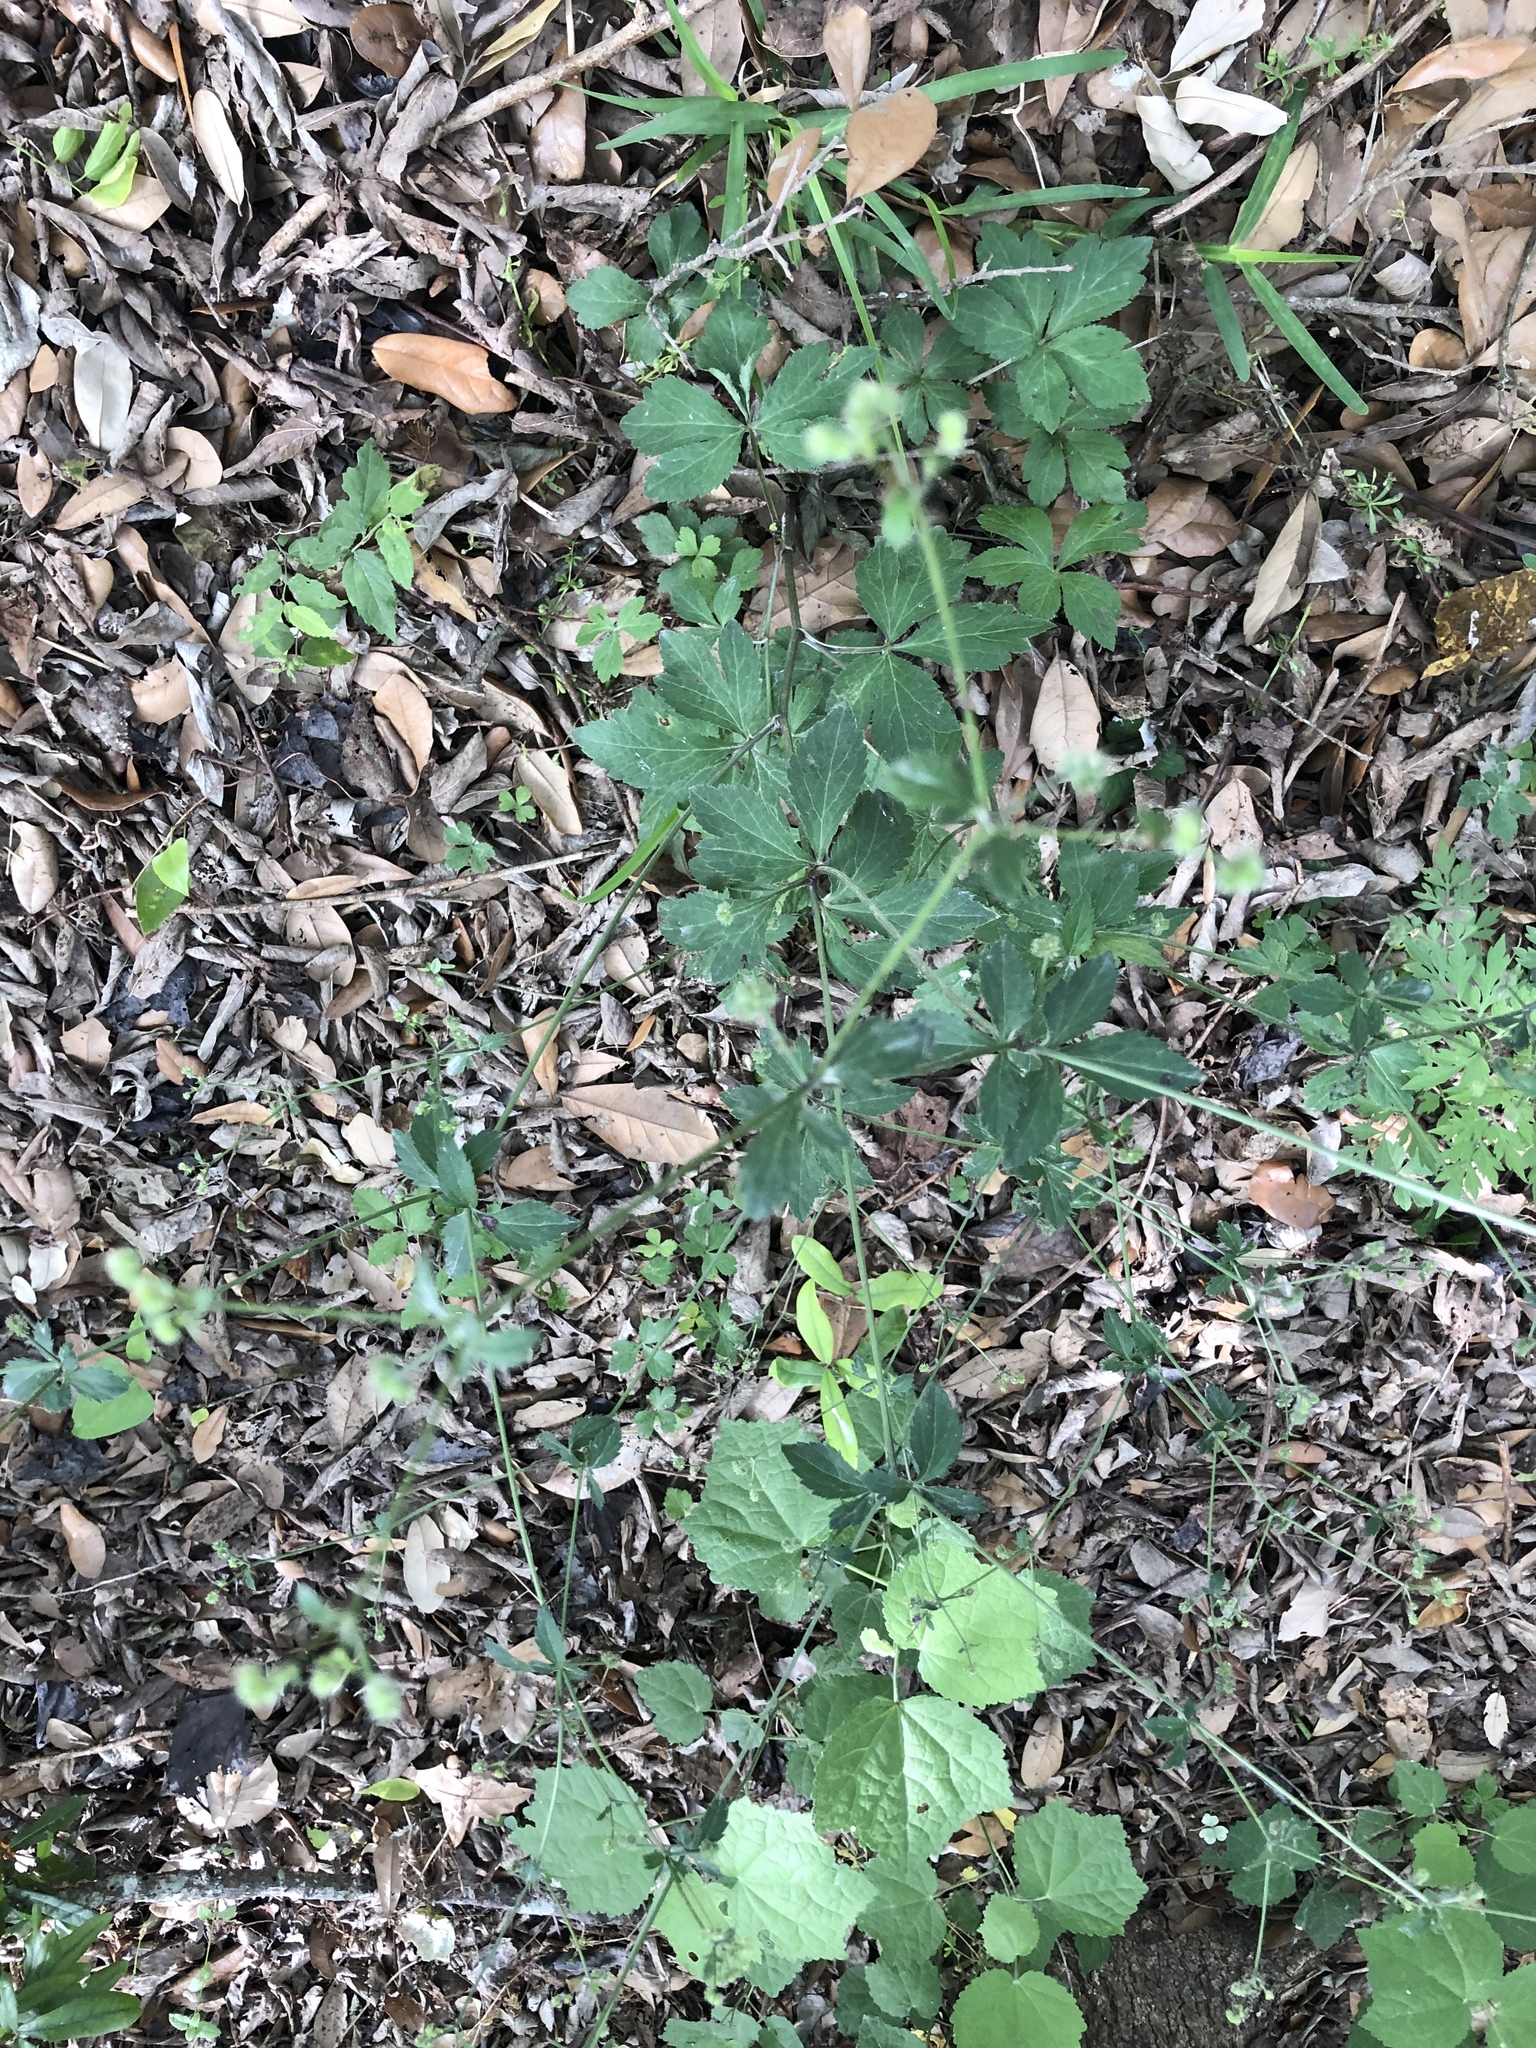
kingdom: Plantae
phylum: Tracheophyta
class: Magnoliopsida
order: Apiales
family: Apiaceae
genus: Sanicula
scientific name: Sanicula canadensis
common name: Canada sanicle
